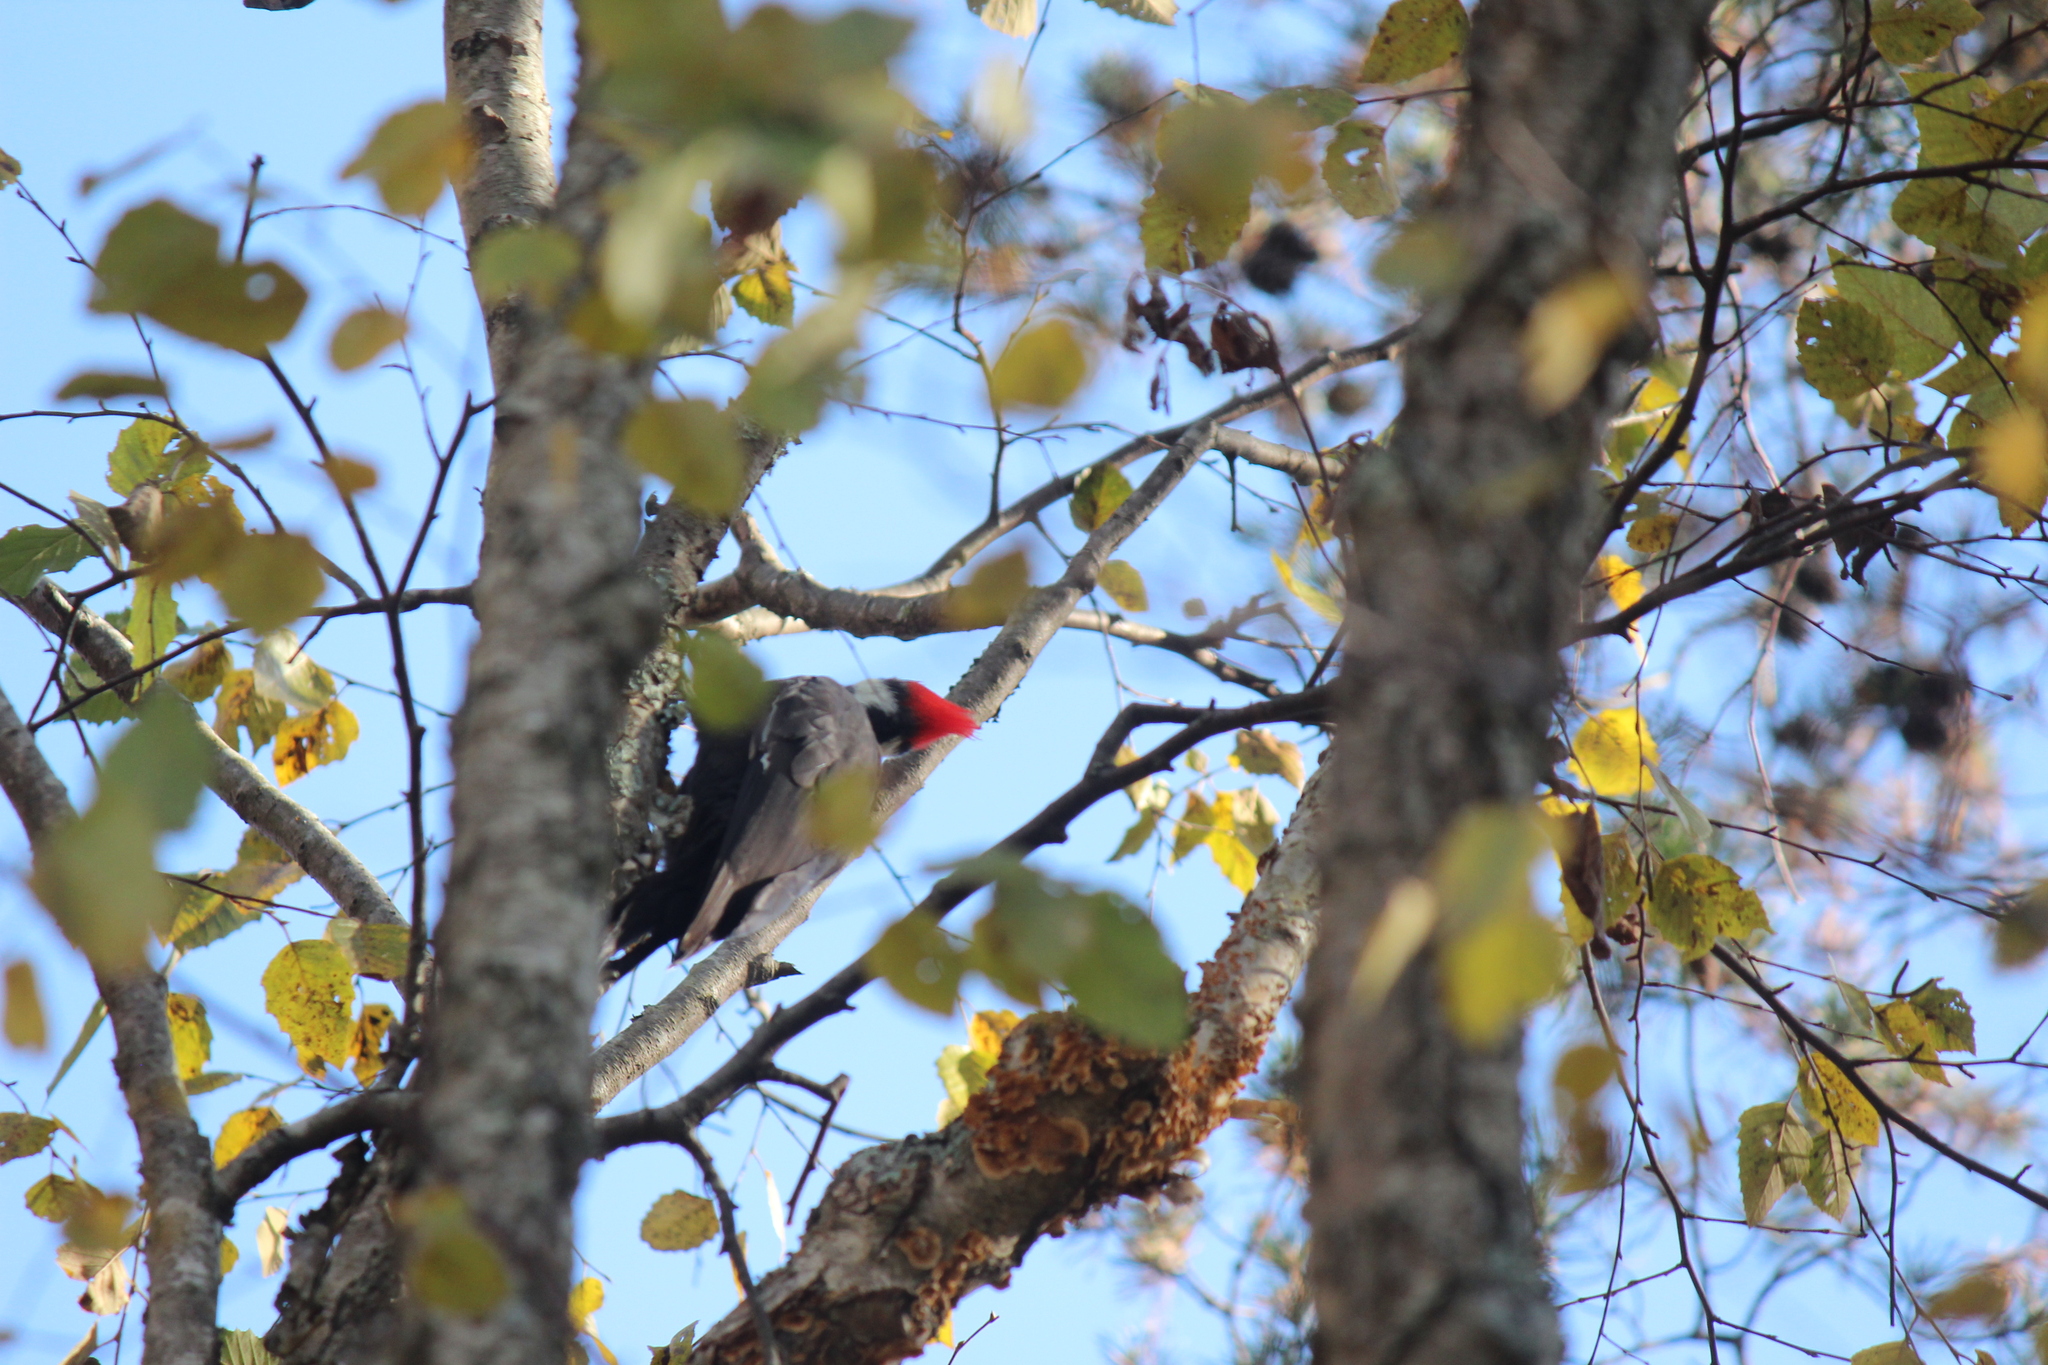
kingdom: Animalia
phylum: Chordata
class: Aves
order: Piciformes
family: Picidae
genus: Dryocopus
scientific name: Dryocopus pileatus
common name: Pileated woodpecker
